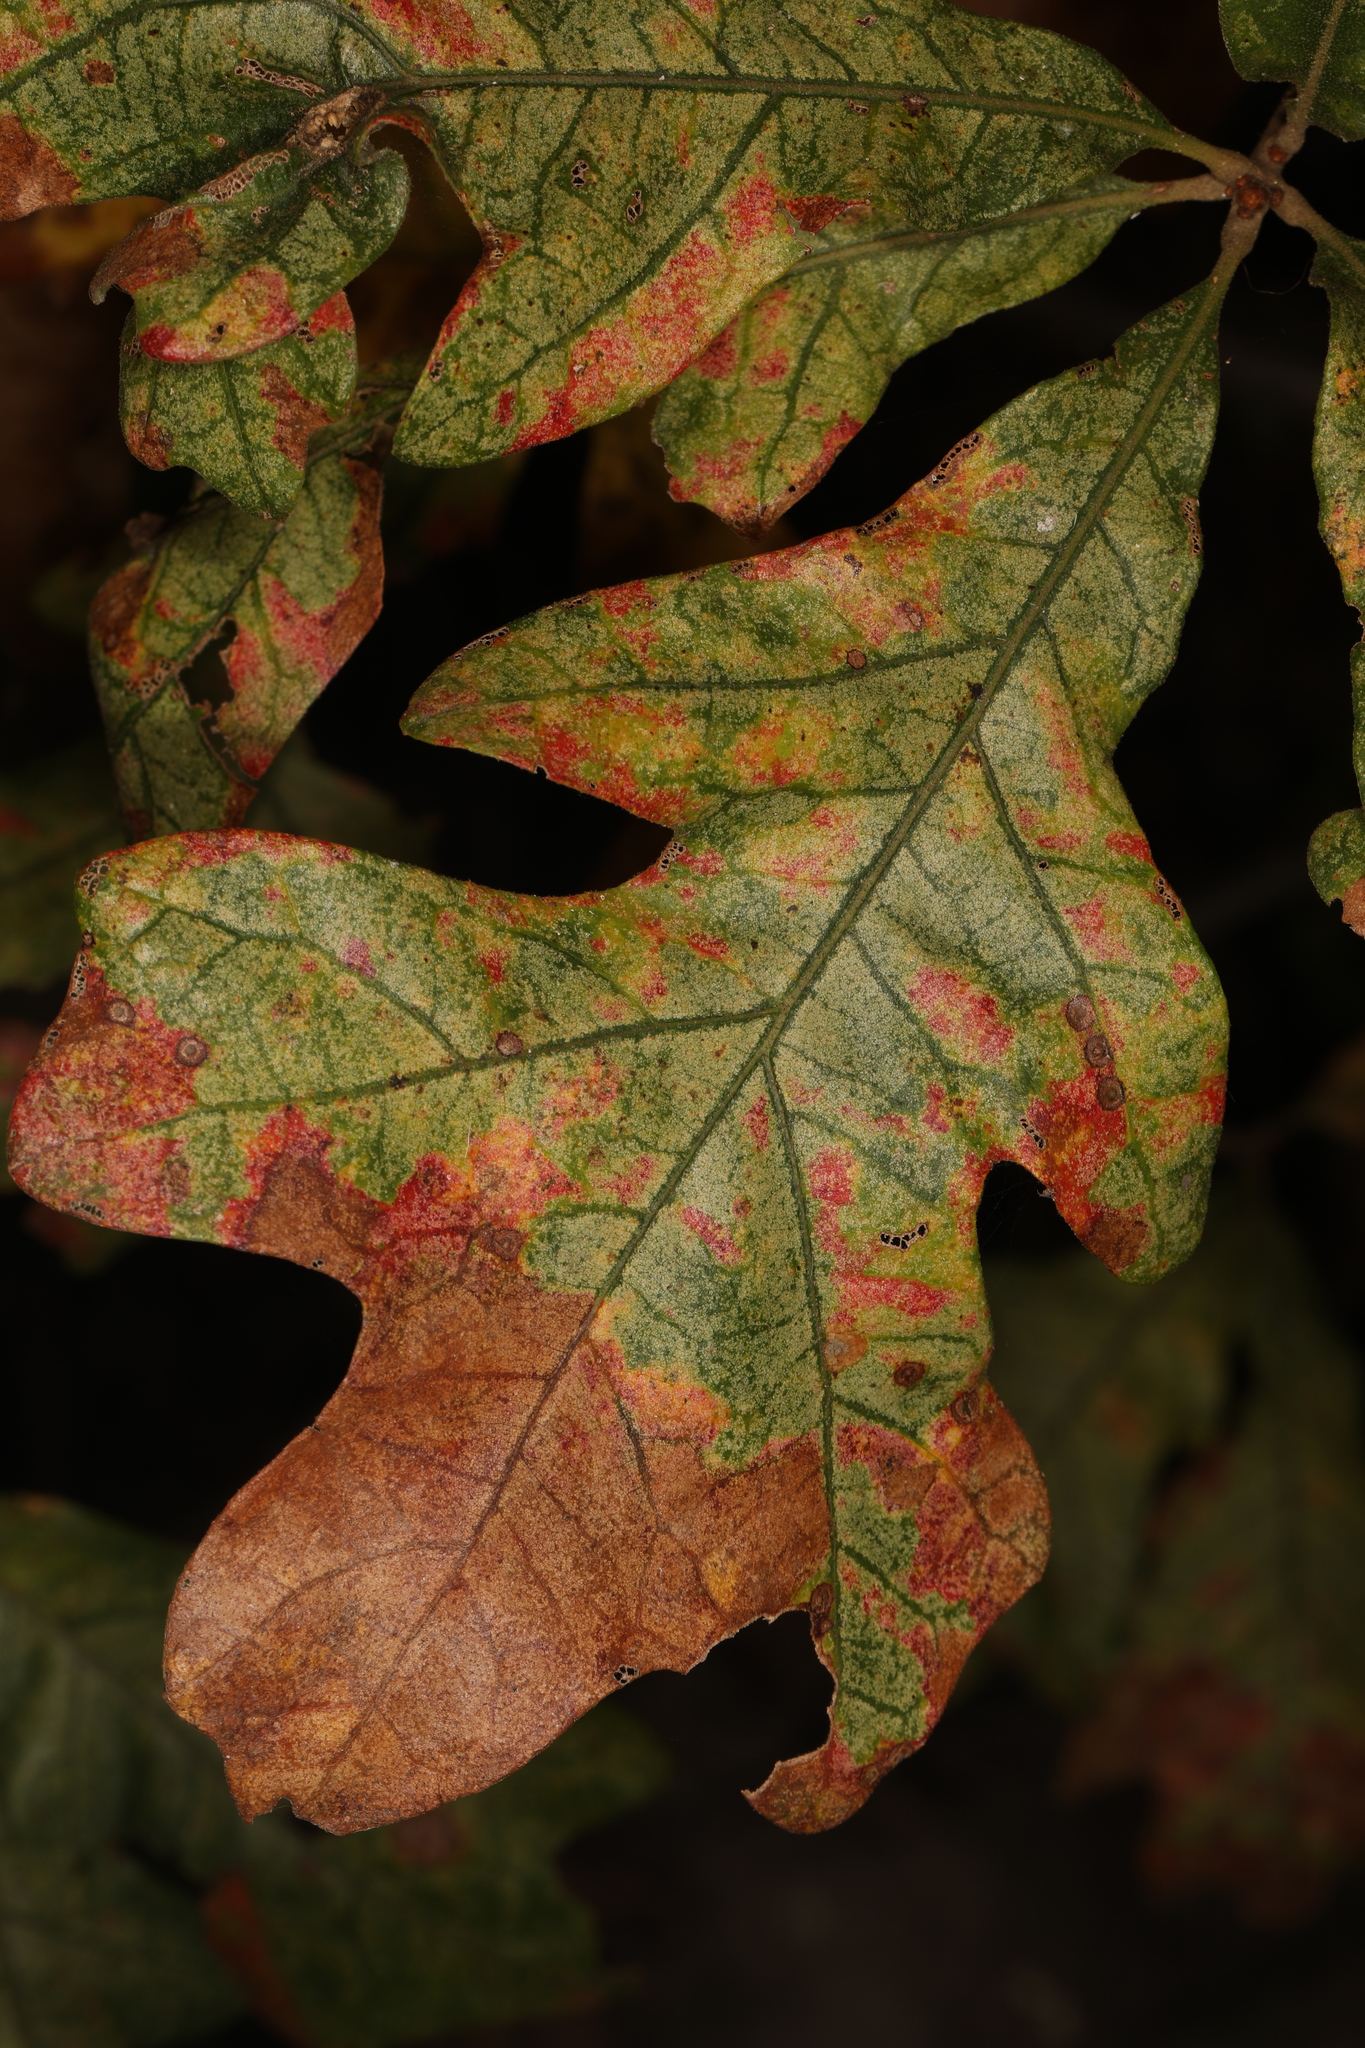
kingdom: Plantae
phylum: Tracheophyta
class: Magnoliopsida
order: Fagales
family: Fagaceae
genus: Quercus
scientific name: Quercus alba
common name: White oak
